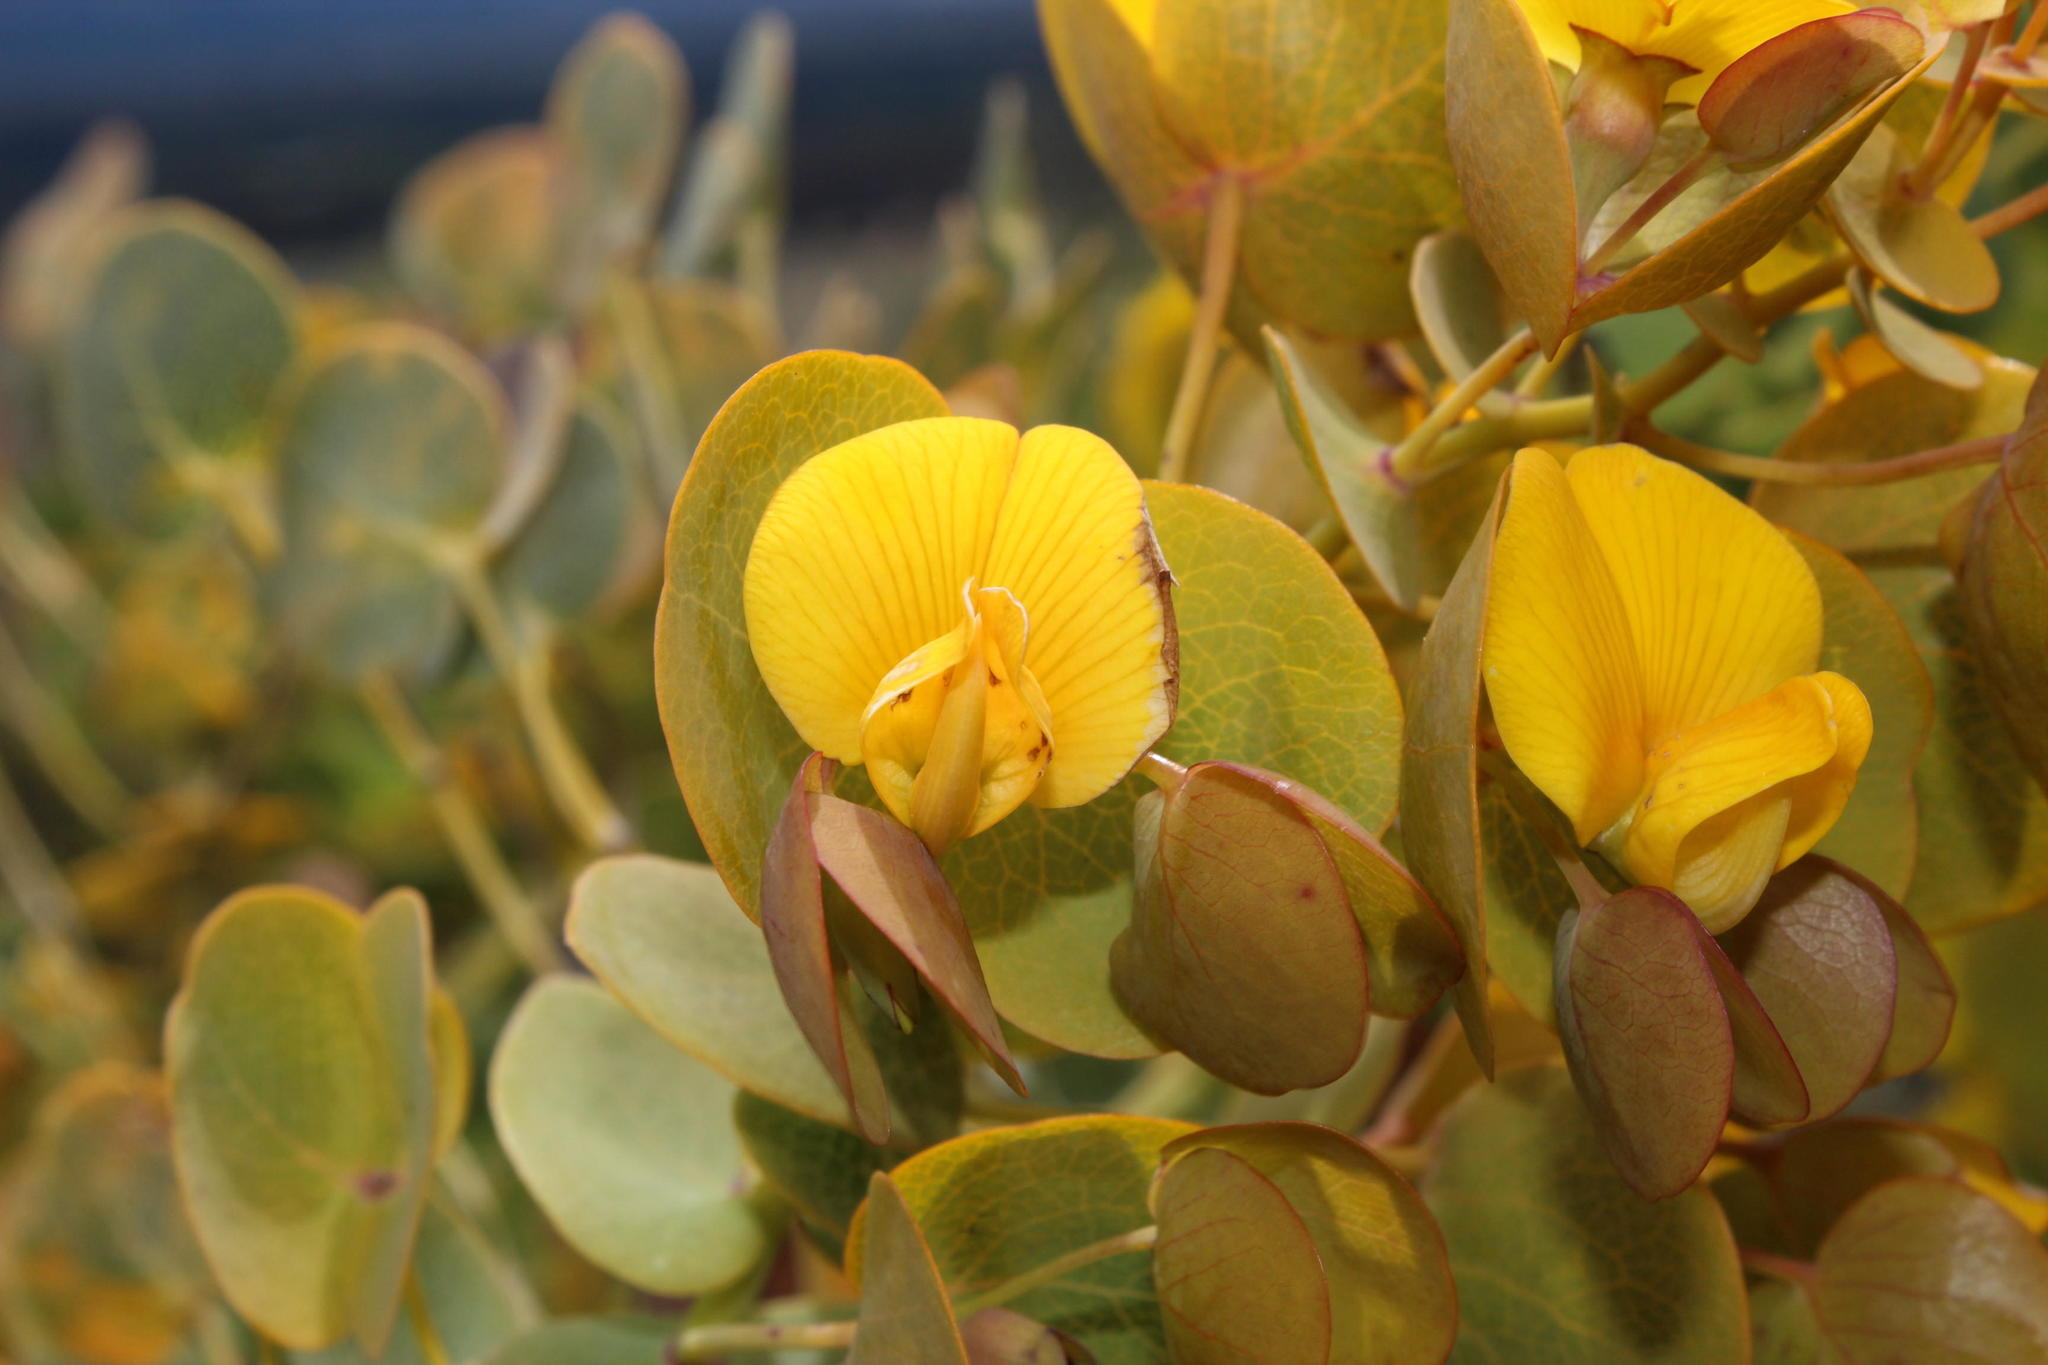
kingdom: Plantae
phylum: Tracheophyta
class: Magnoliopsida
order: Fabales
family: Fabaceae
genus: Rafnia
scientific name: Rafnia amplexicaulis
